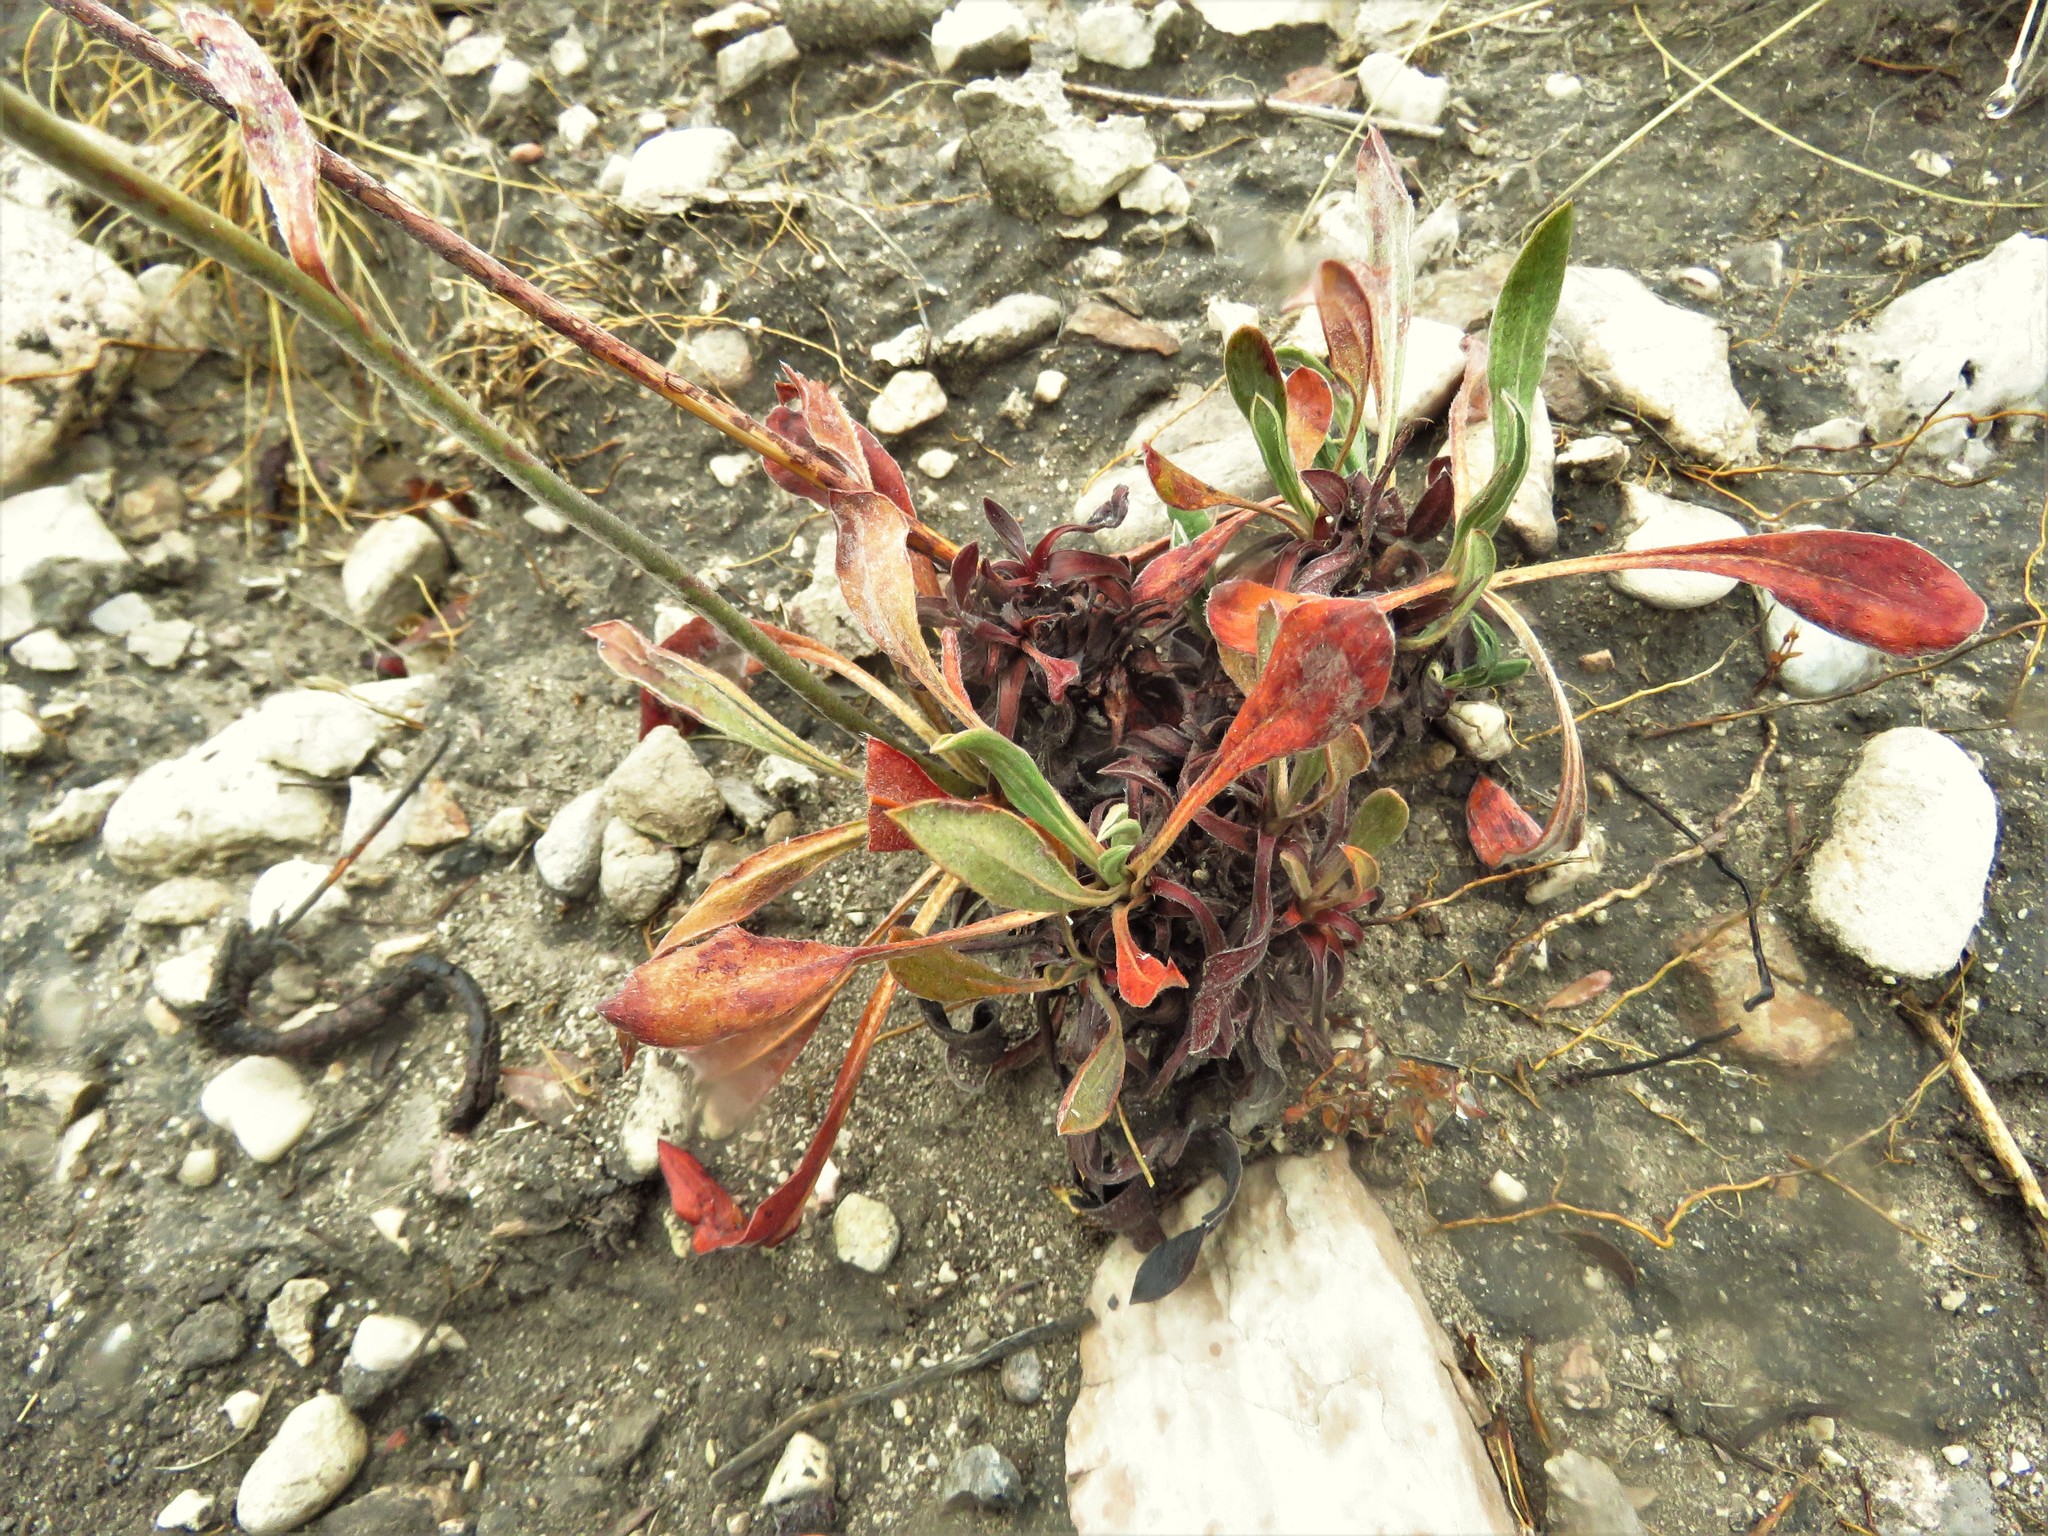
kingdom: Plantae
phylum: Tracheophyta
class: Magnoliopsida
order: Caryophyllales
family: Polygonaceae
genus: Eriogonum
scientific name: Eriogonum hieraciifolium
